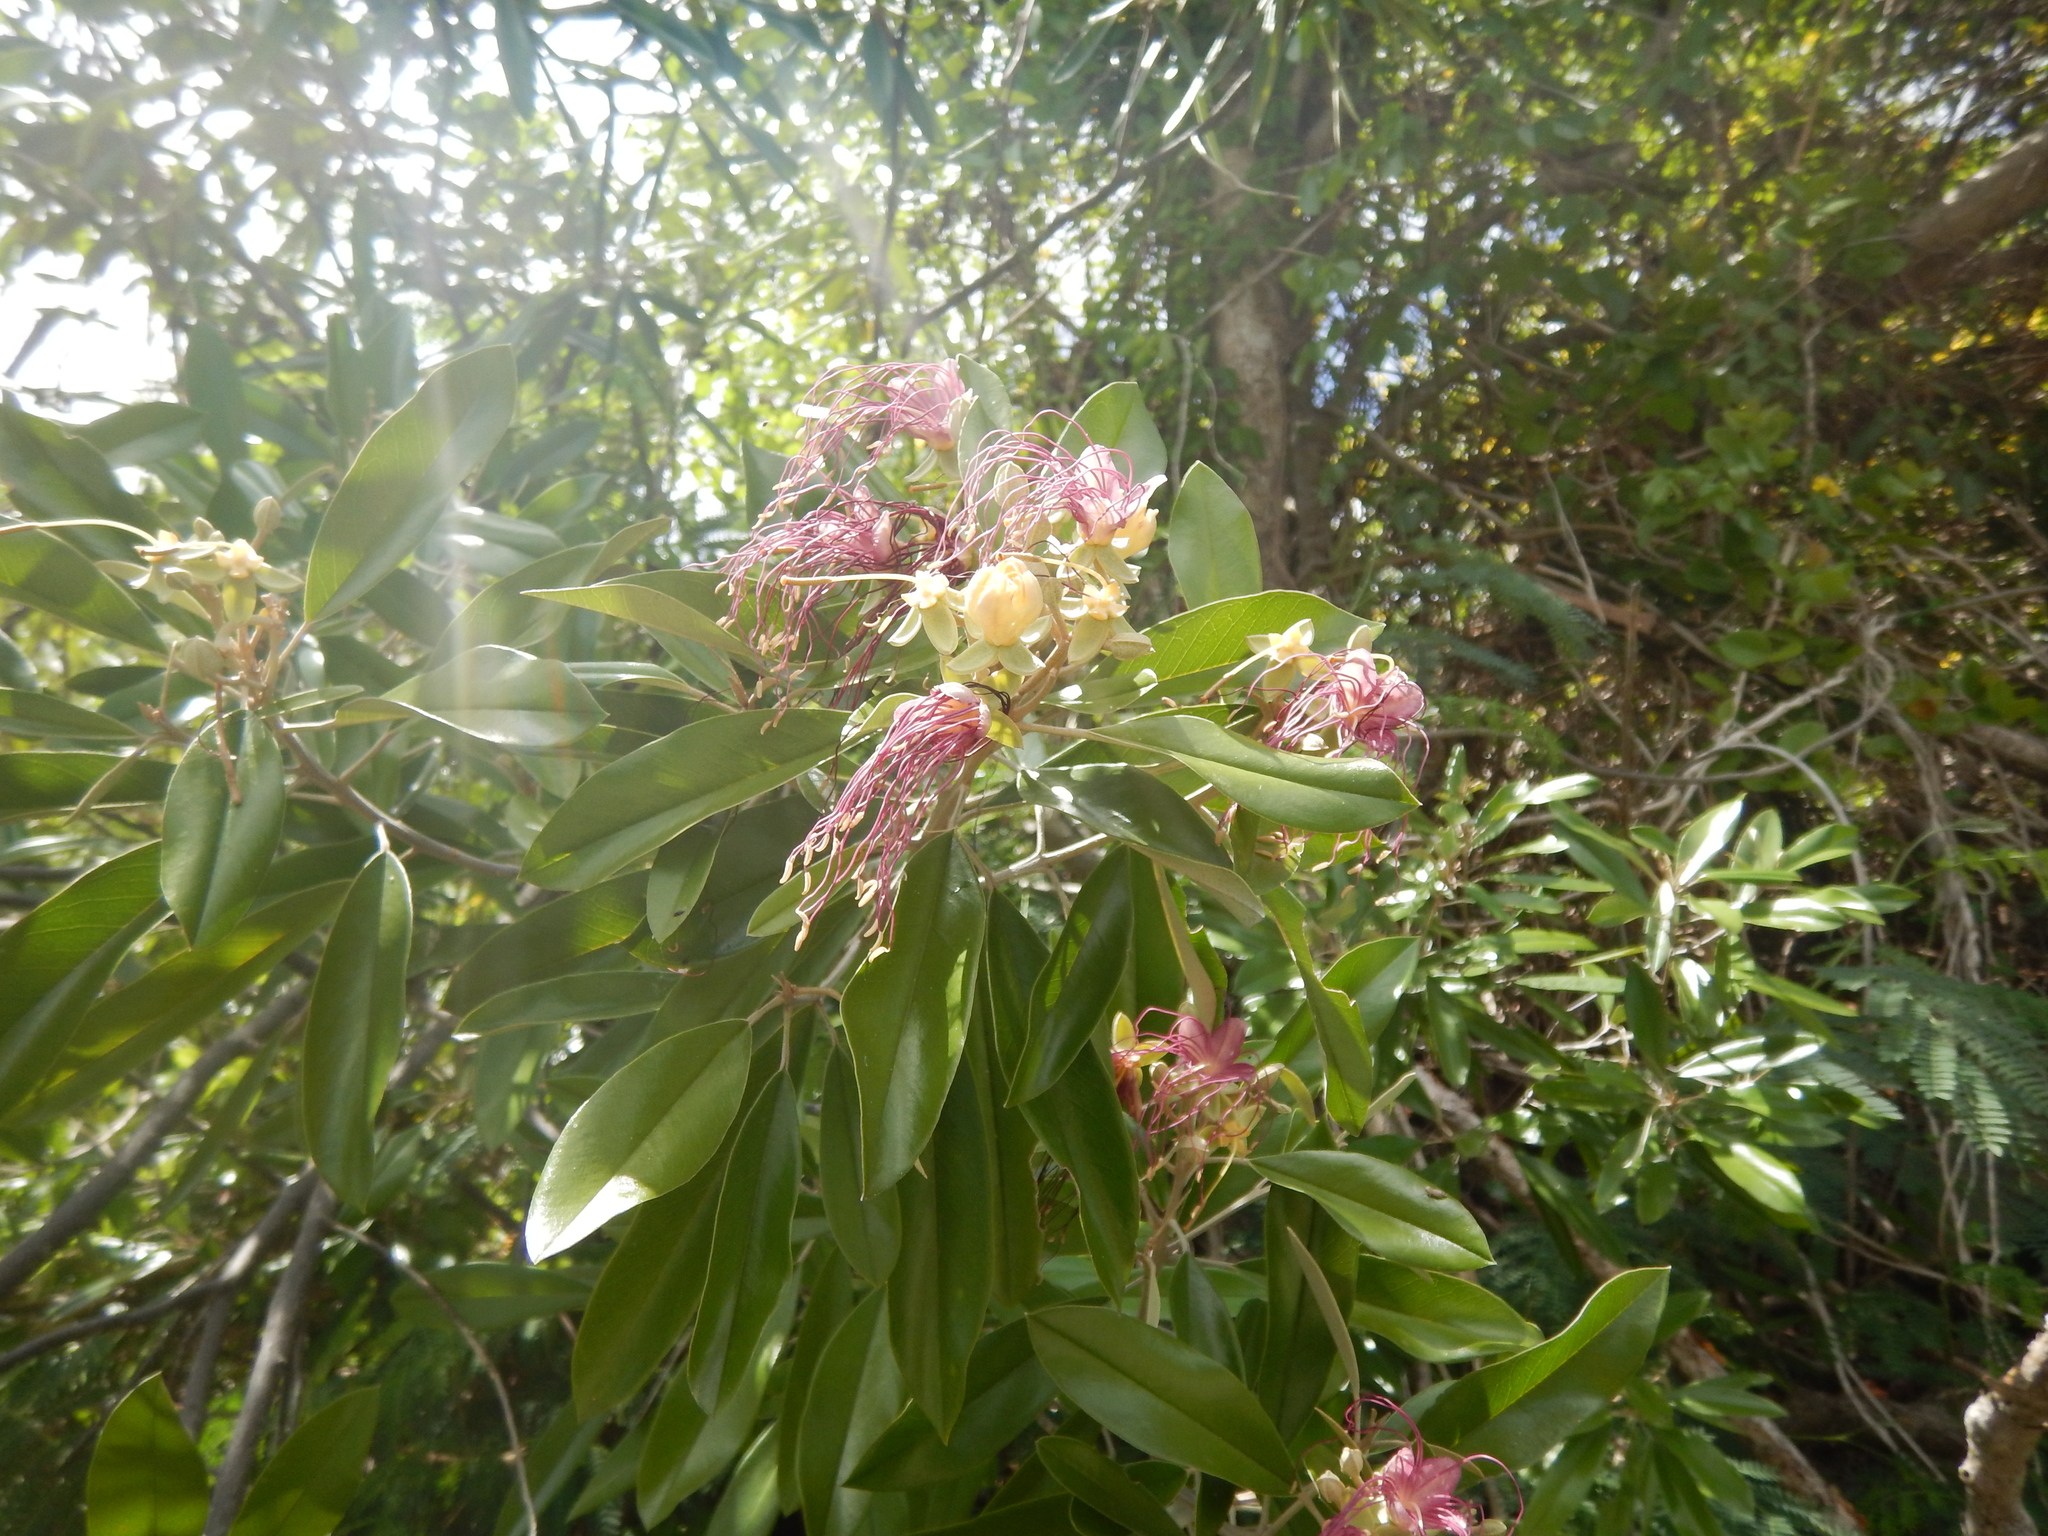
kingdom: Plantae
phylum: Tracheophyta
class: Magnoliopsida
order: Brassicales
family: Capparaceae
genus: Quadrella
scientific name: Quadrella cynophallophora
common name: Black willow
